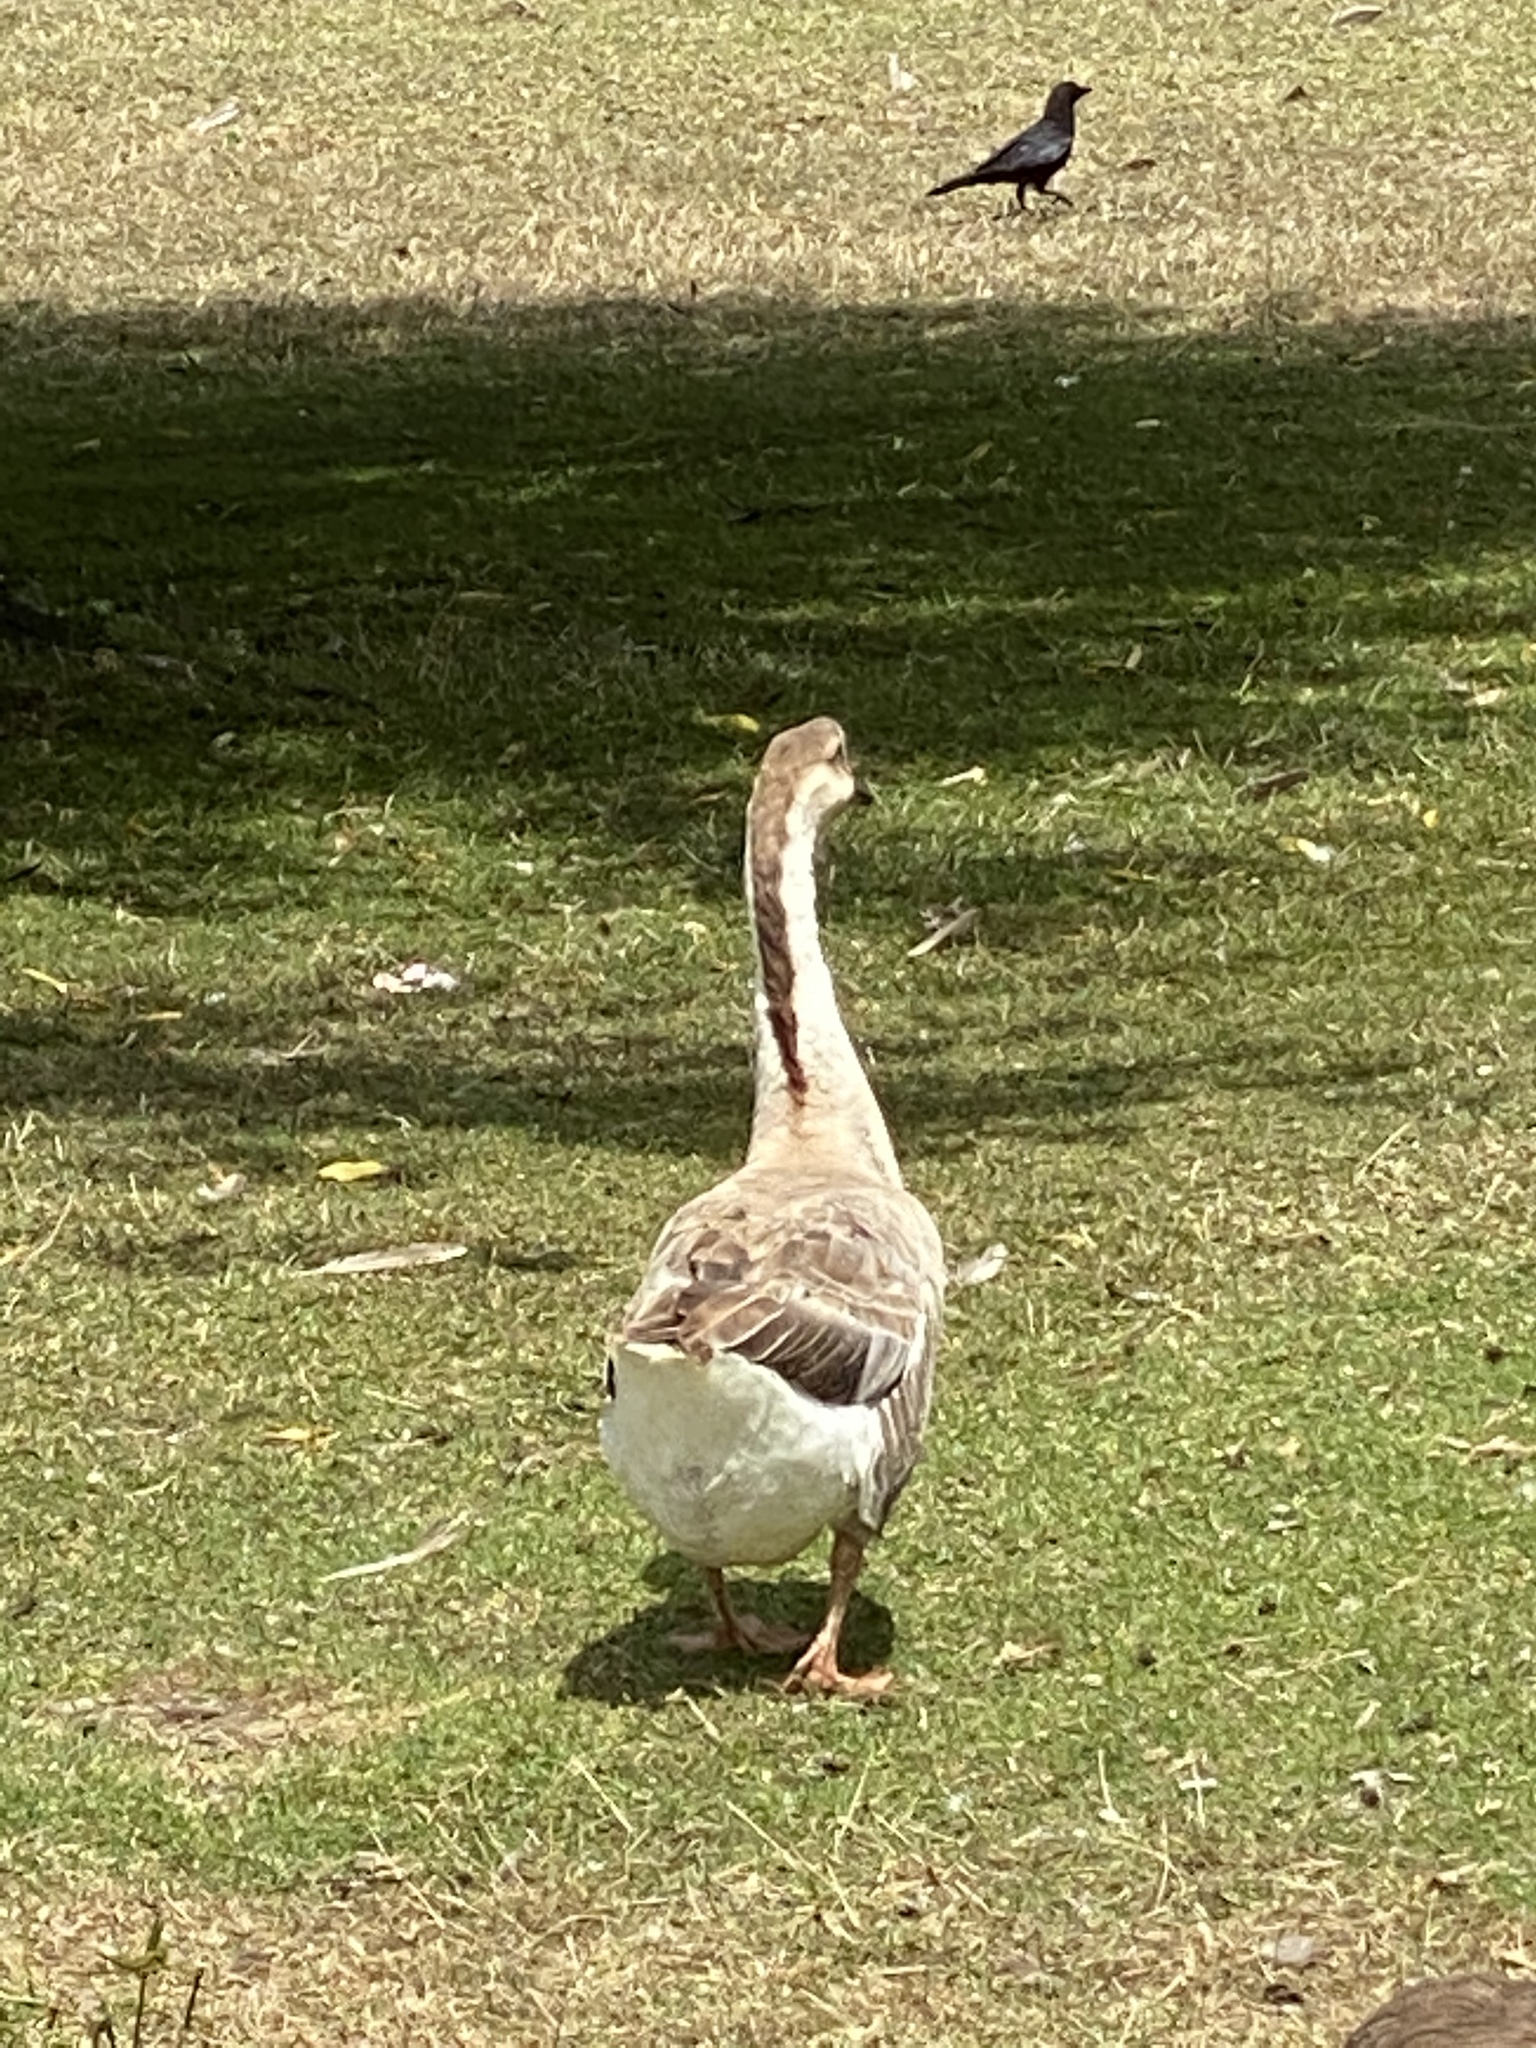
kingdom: Animalia
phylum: Chordata
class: Aves
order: Anseriformes
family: Anatidae
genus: Anser
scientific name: Anser cygnoides
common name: Swan goose
